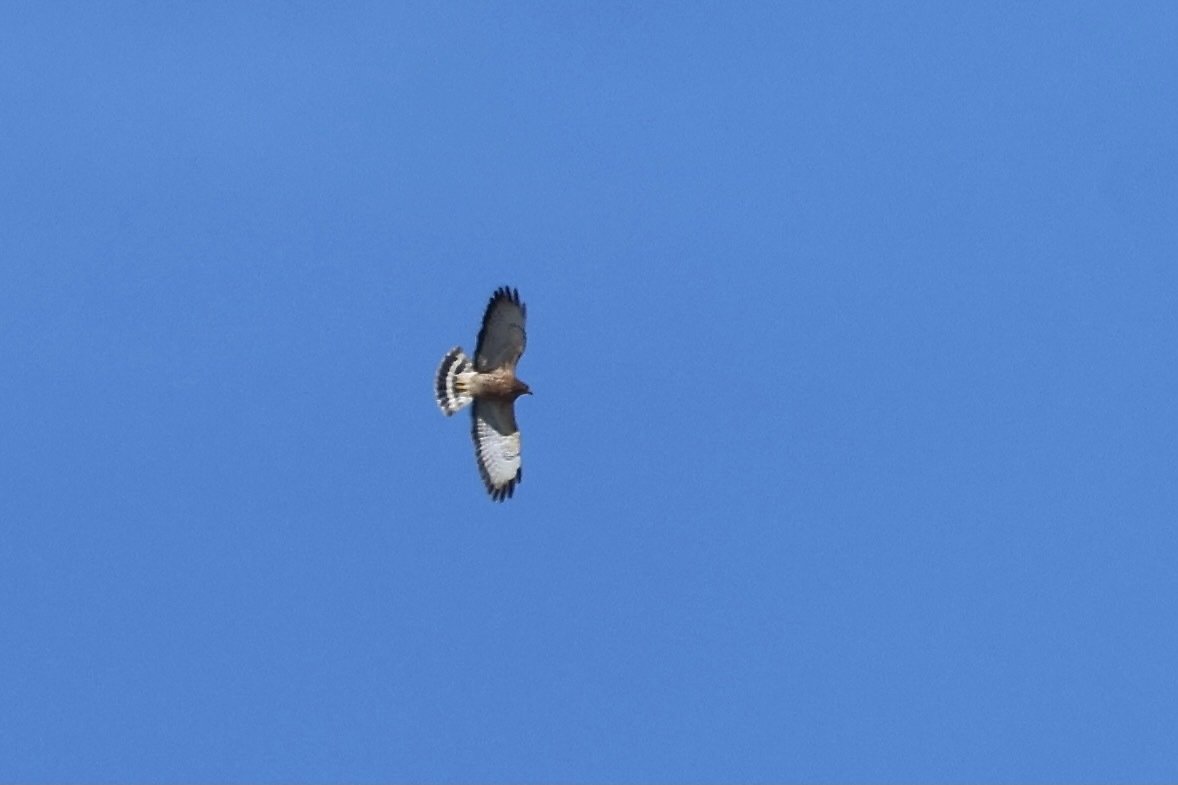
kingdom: Animalia
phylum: Chordata
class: Aves
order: Accipitriformes
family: Accipitridae
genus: Buteo
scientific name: Buteo platypterus
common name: Broad-winged hawk
